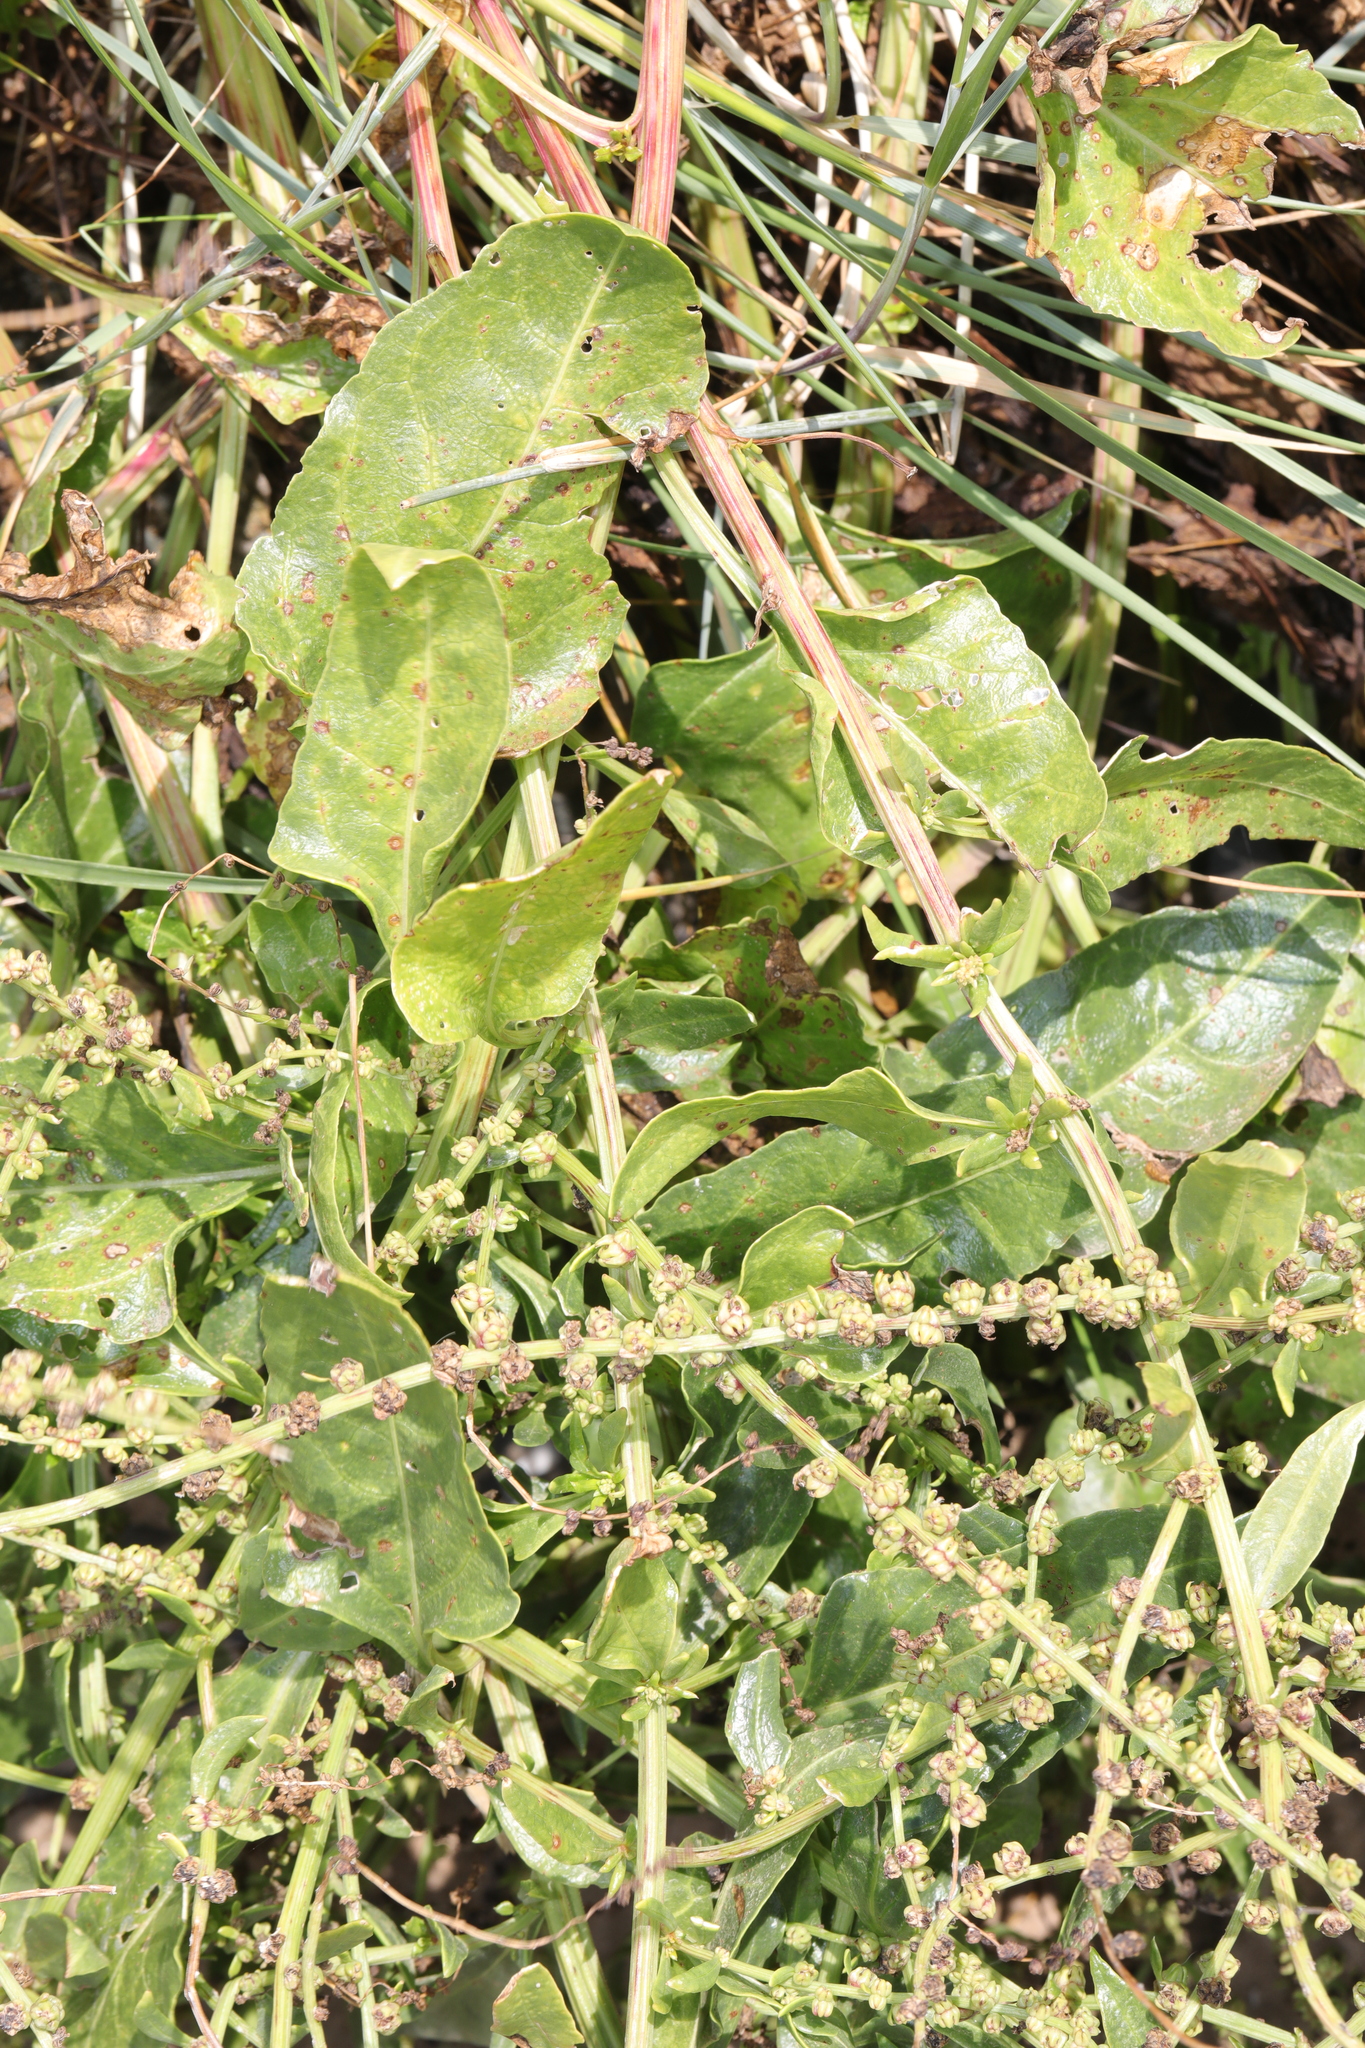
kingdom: Plantae
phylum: Tracheophyta
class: Magnoliopsida
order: Caryophyllales
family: Amaranthaceae
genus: Beta
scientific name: Beta vulgaris
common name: Beet
